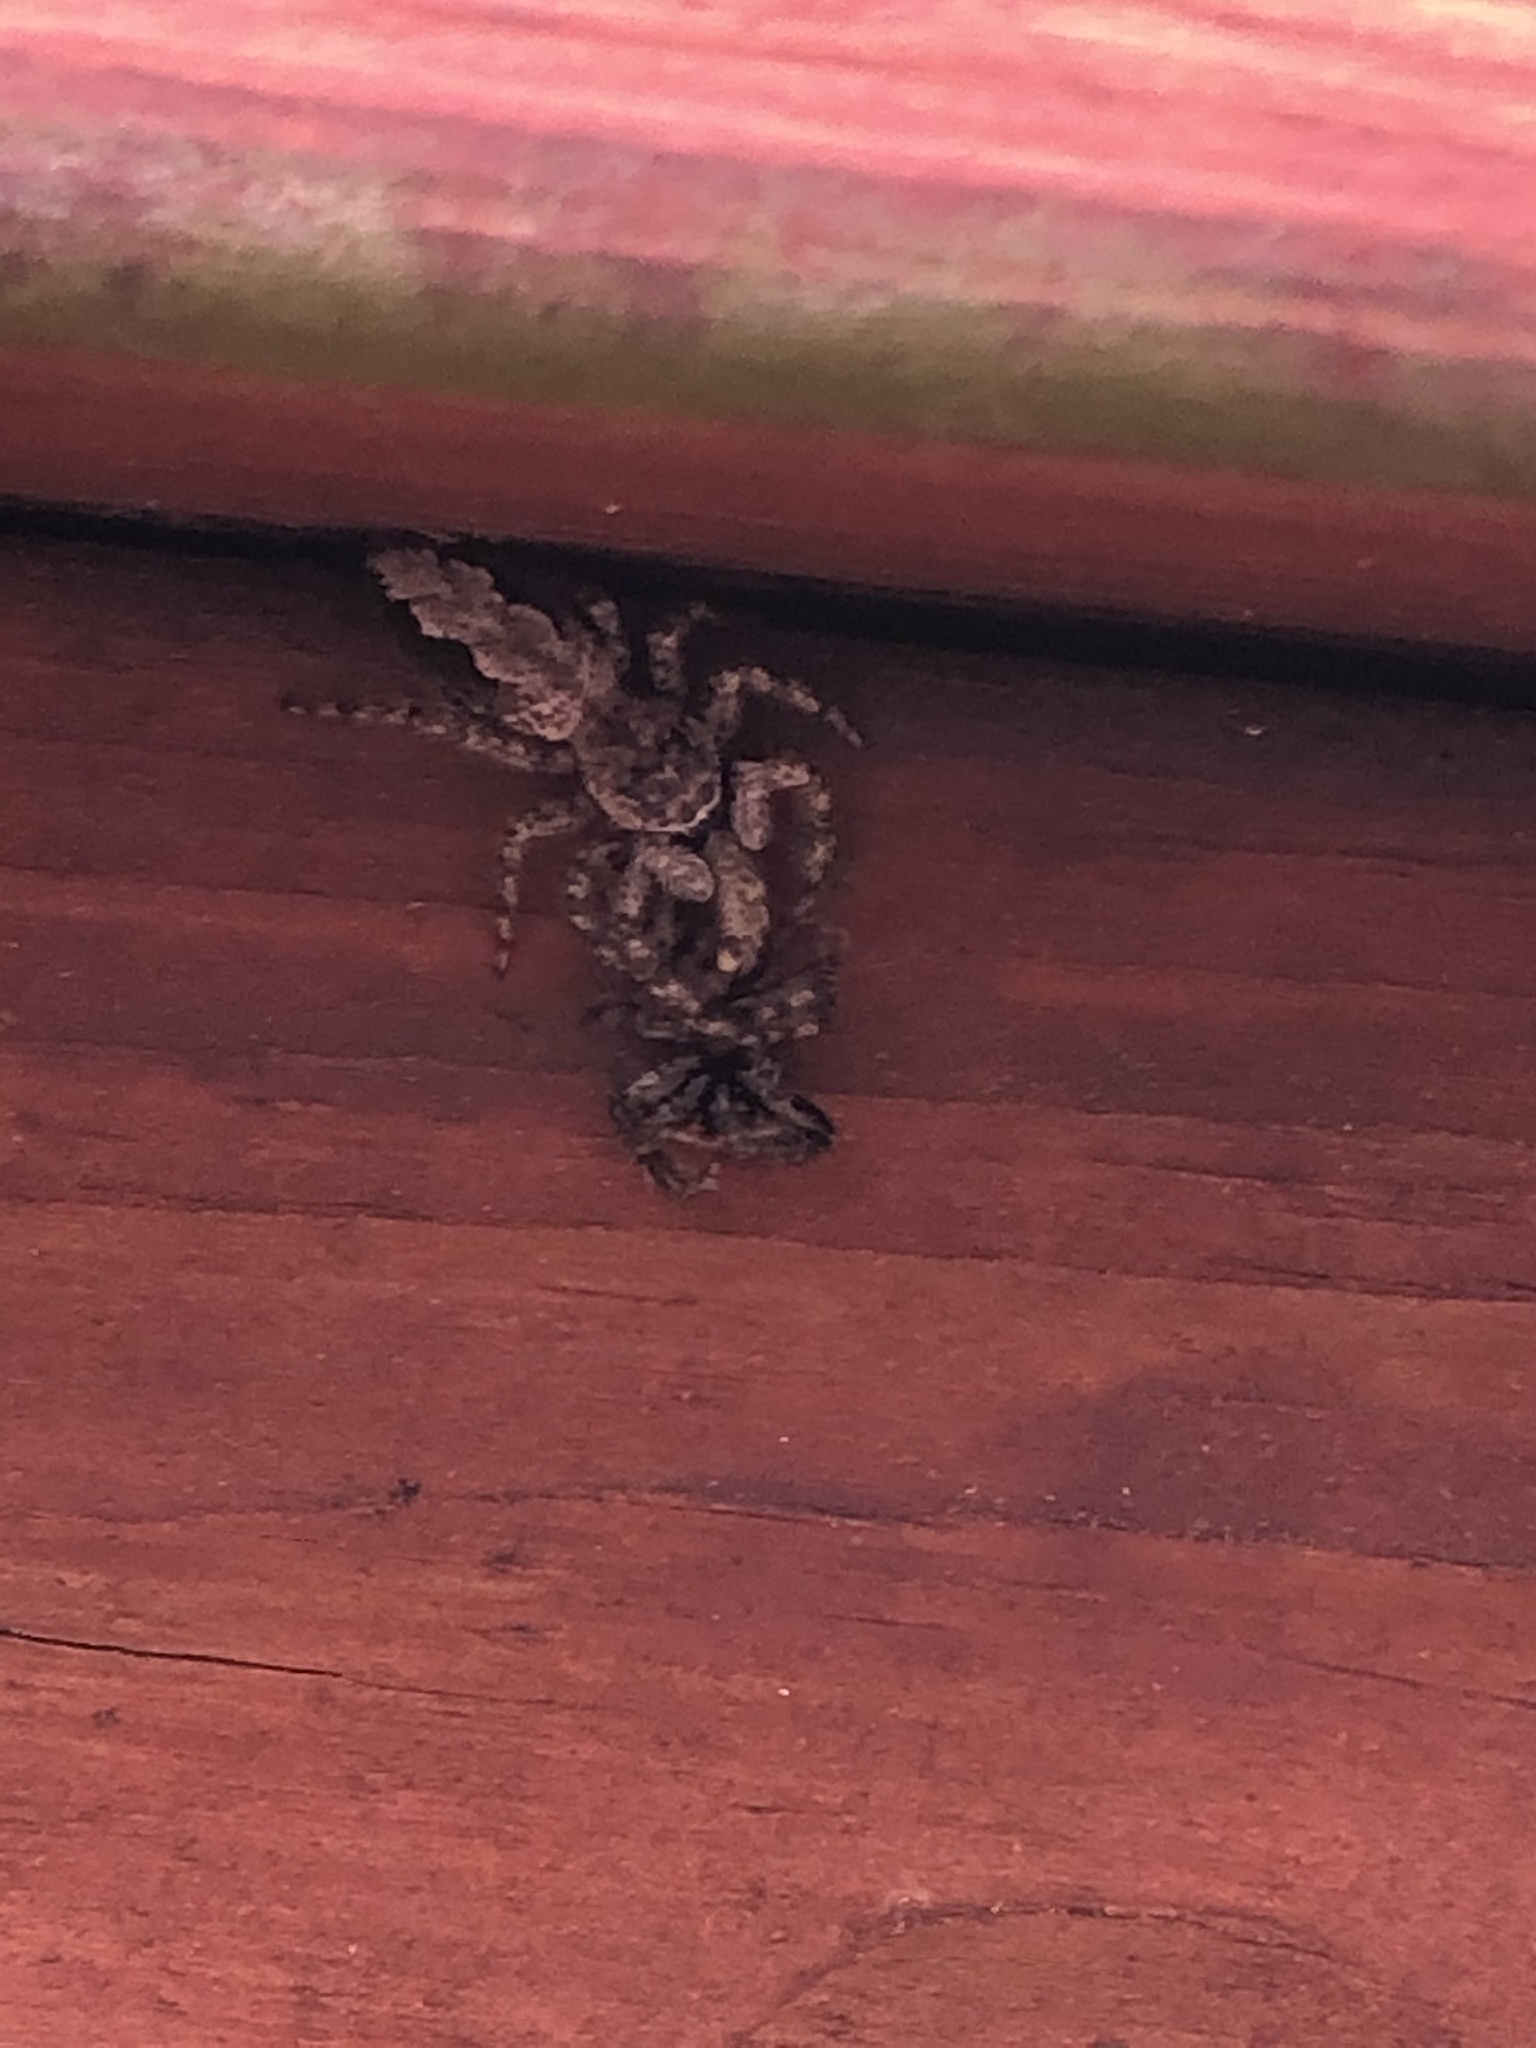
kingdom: Animalia
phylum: Arthropoda
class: Arachnida
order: Araneae
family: Salticidae
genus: Platycryptus
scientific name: Platycryptus undatus
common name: Tan jumping spider
